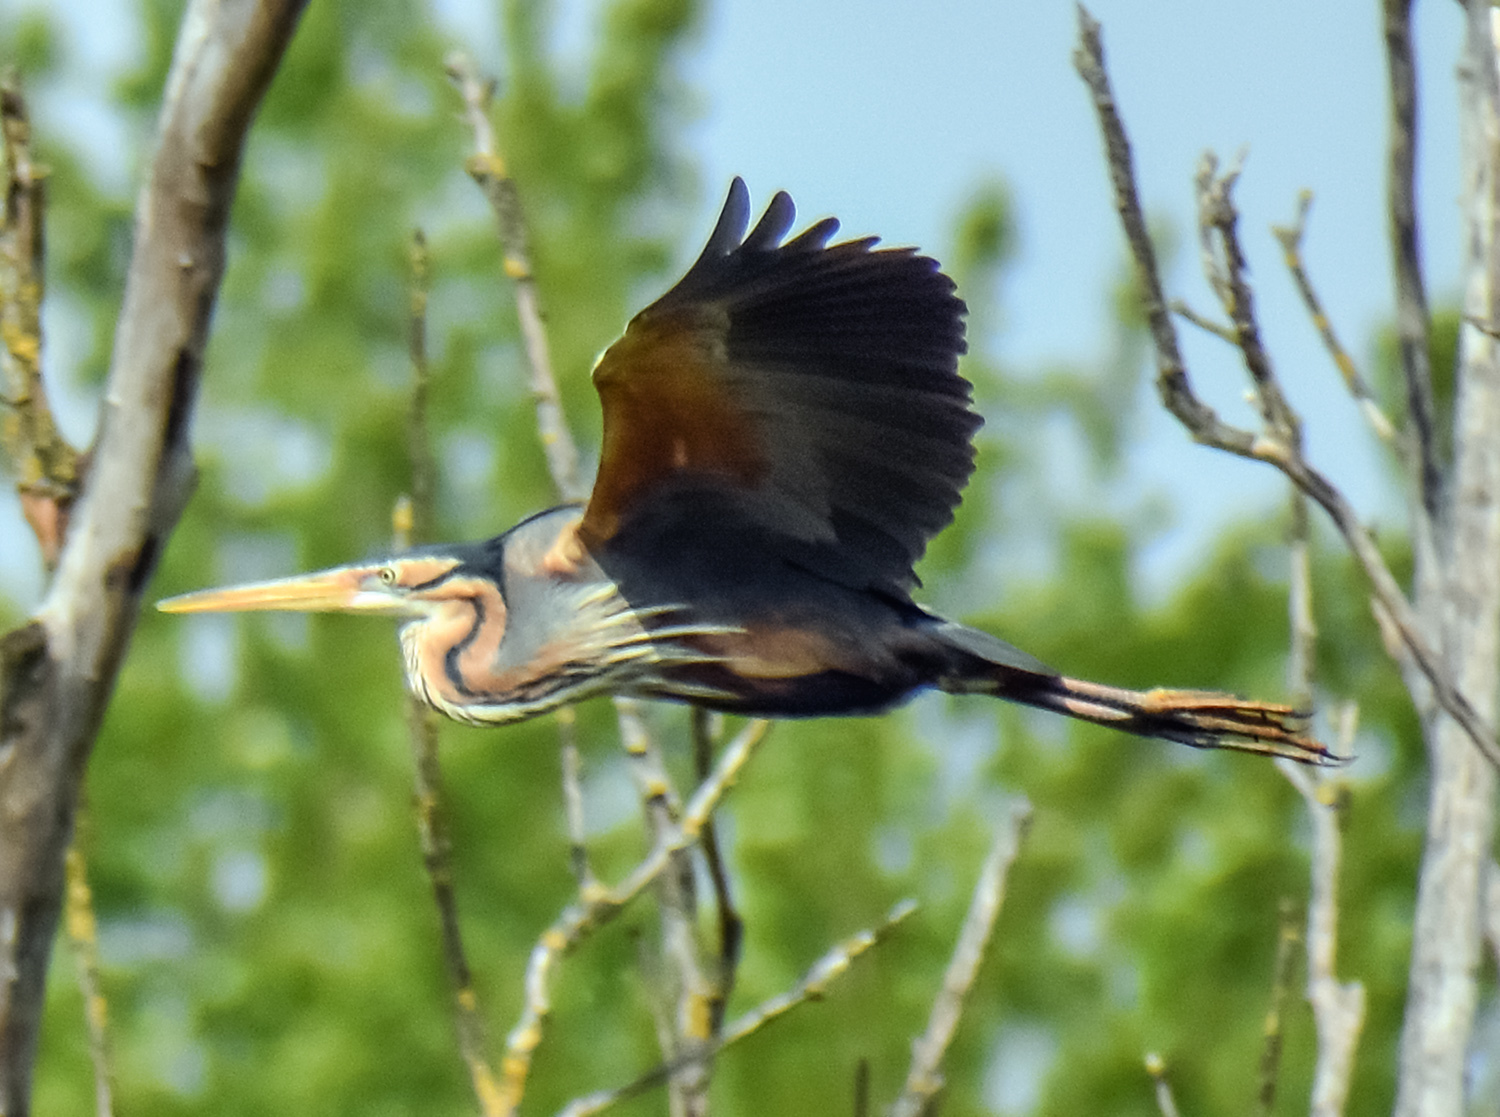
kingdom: Animalia
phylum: Chordata
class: Aves
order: Pelecaniformes
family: Ardeidae
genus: Ardea
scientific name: Ardea purpurea
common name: Purple heron
